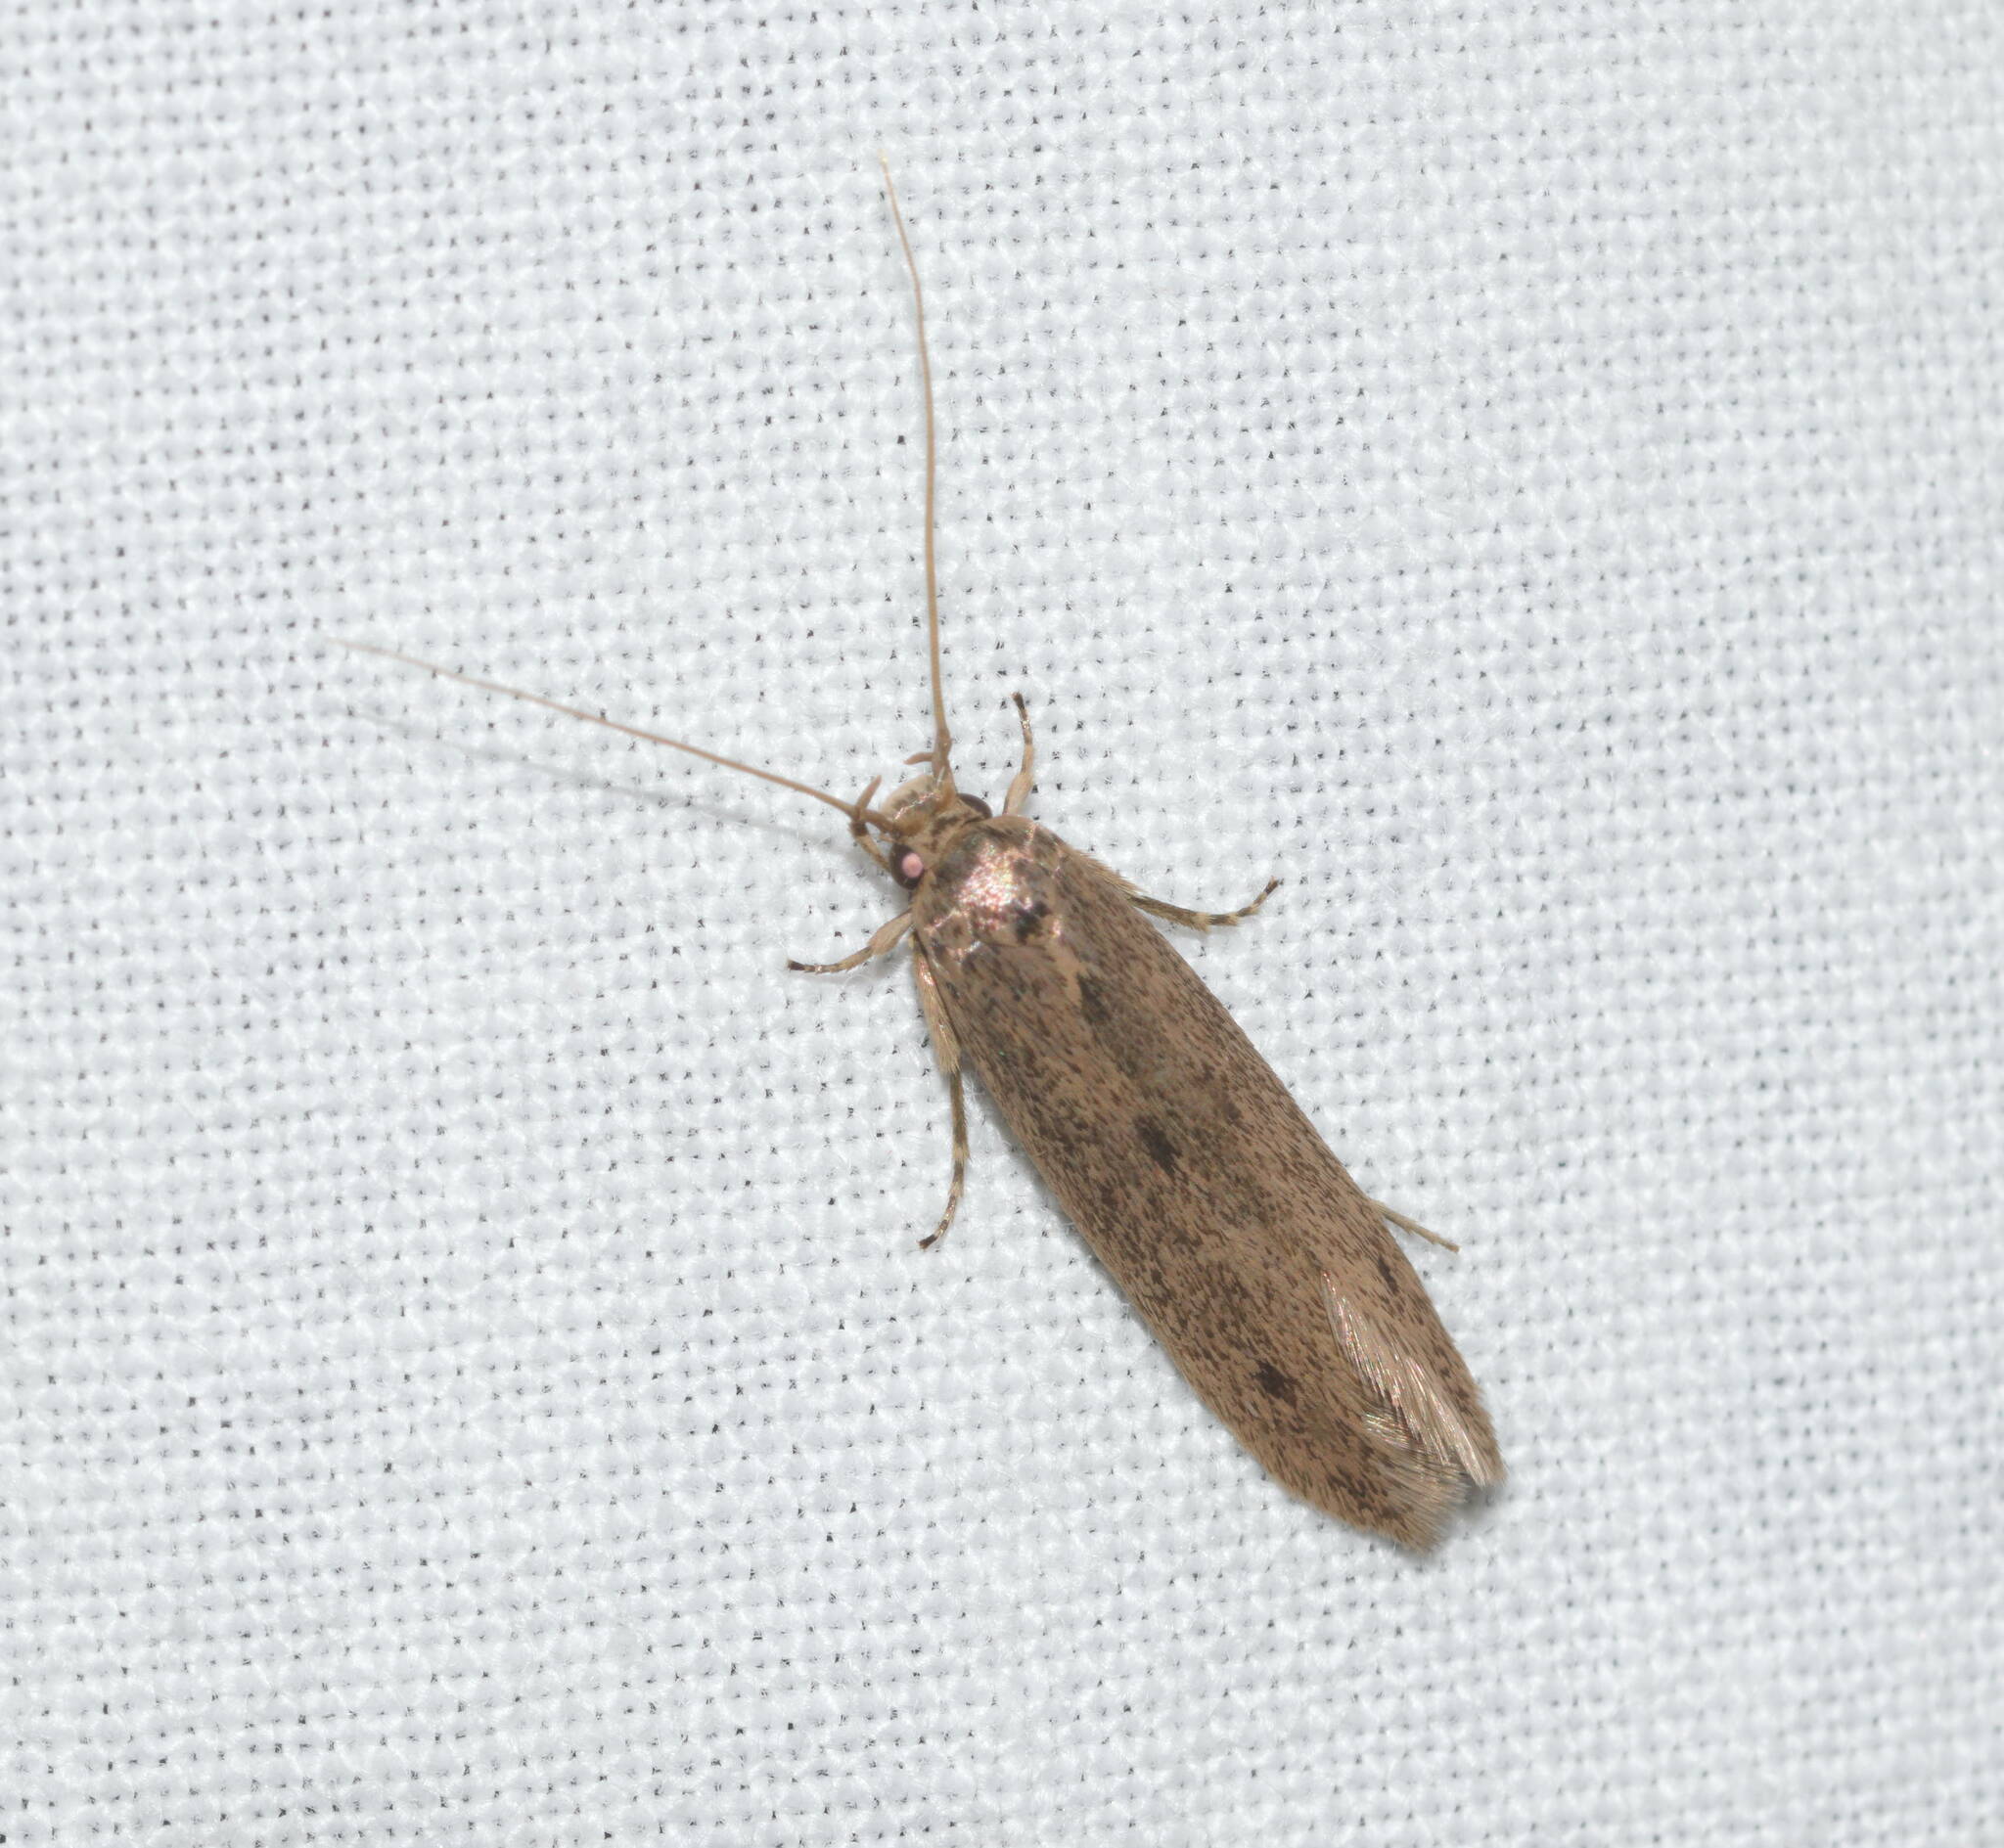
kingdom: Animalia
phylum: Arthropoda
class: Insecta
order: Lepidoptera
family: Tineidae
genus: Opogona
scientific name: Opogona sacchari
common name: Banana bud moth
